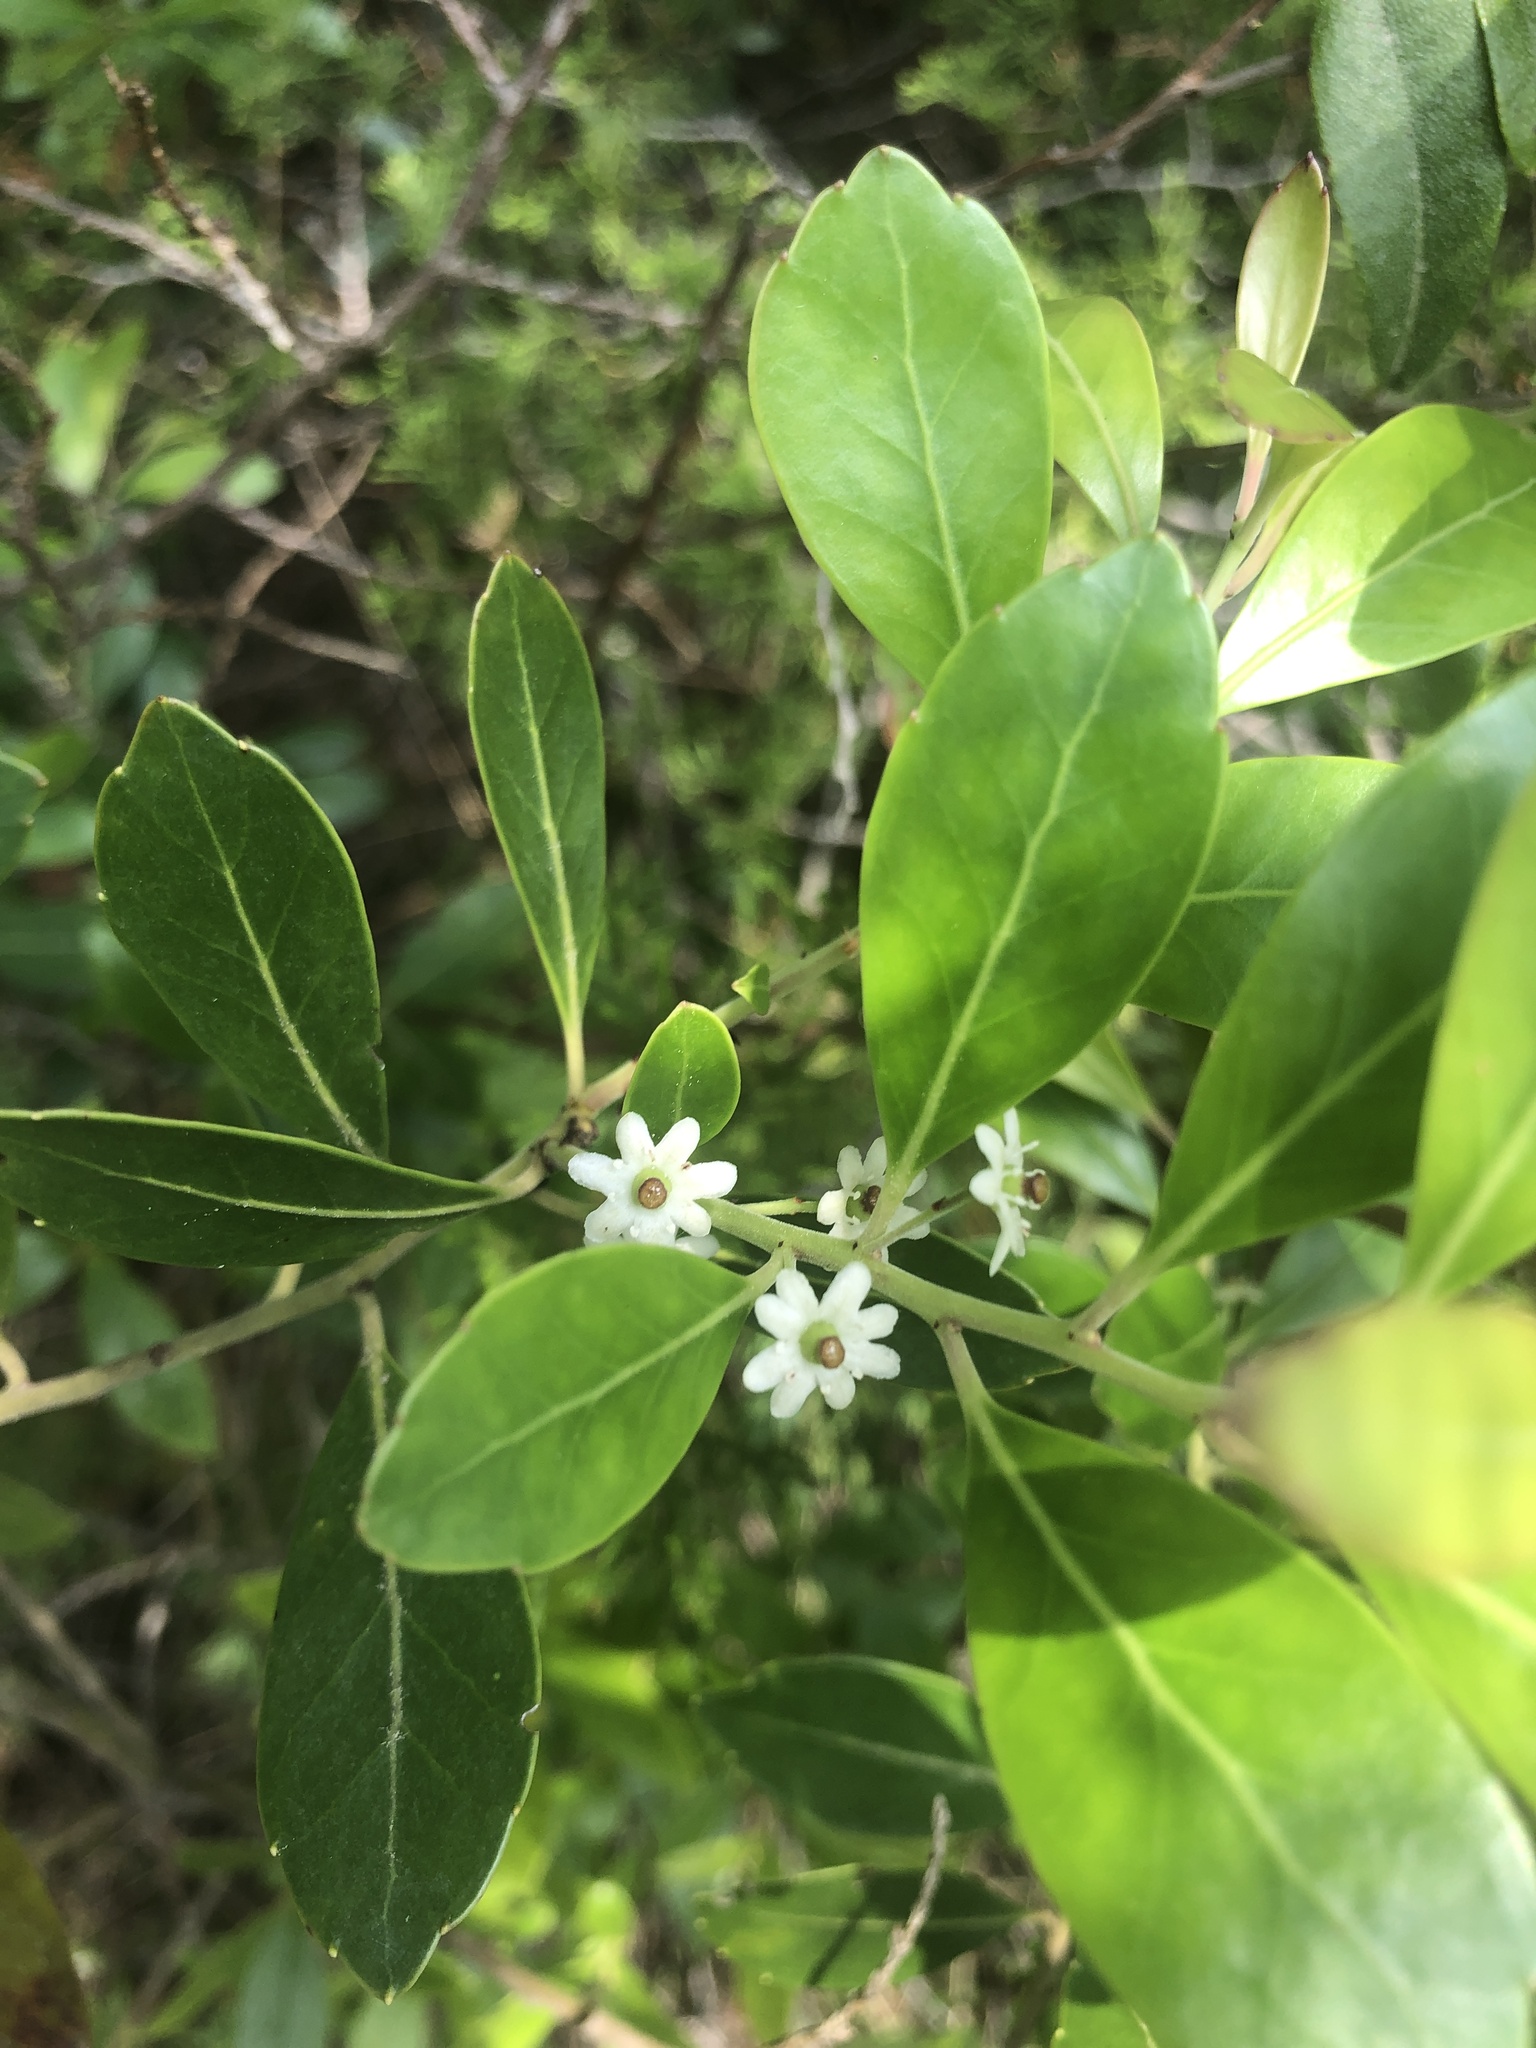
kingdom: Plantae
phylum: Tracheophyta
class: Magnoliopsida
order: Aquifoliales
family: Aquifoliaceae
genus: Ilex
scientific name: Ilex glabra
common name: Bitter gallberry
